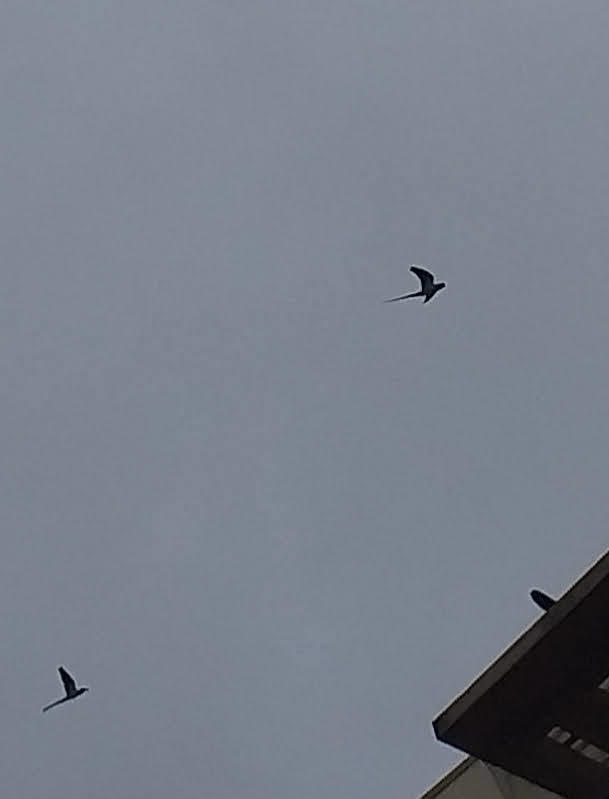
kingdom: Animalia
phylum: Chordata
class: Aves
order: Psittaciformes
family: Psittacidae
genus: Psittacula
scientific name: Psittacula krameri
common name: Rose-ringed parakeet
